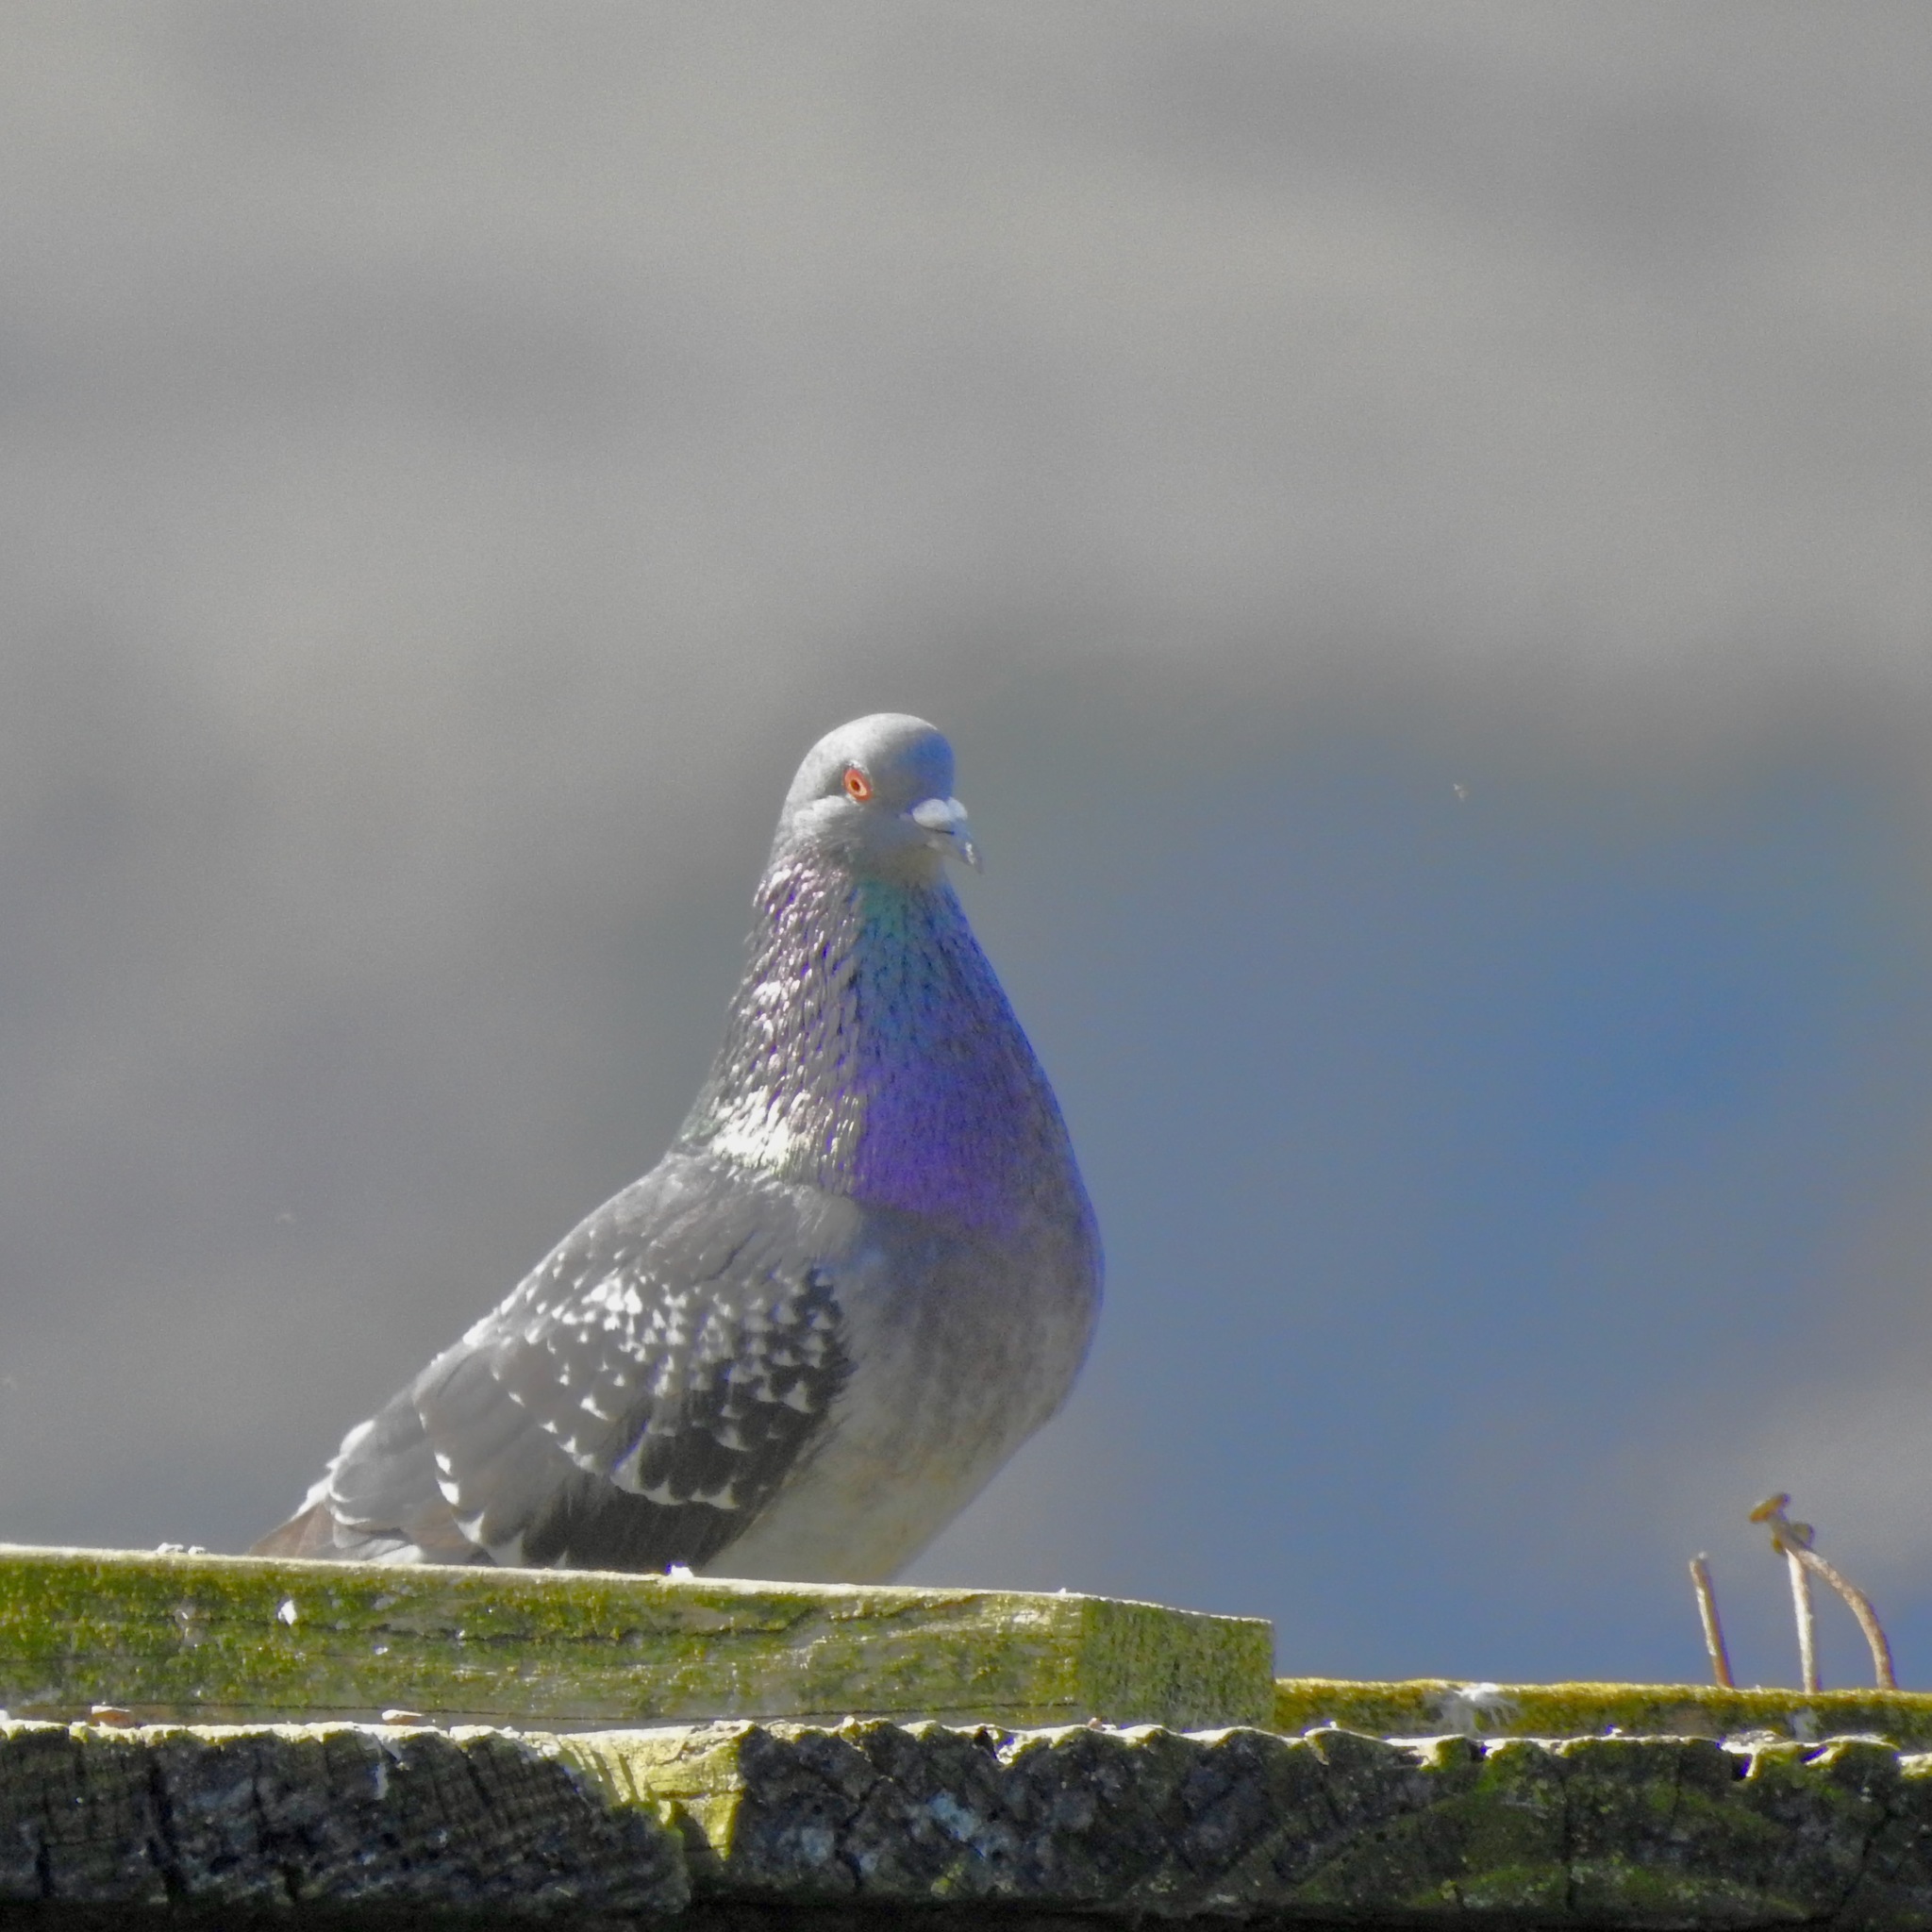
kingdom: Animalia
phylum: Chordata
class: Aves
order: Columbiformes
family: Columbidae
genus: Columba
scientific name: Columba livia
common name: Rock pigeon
